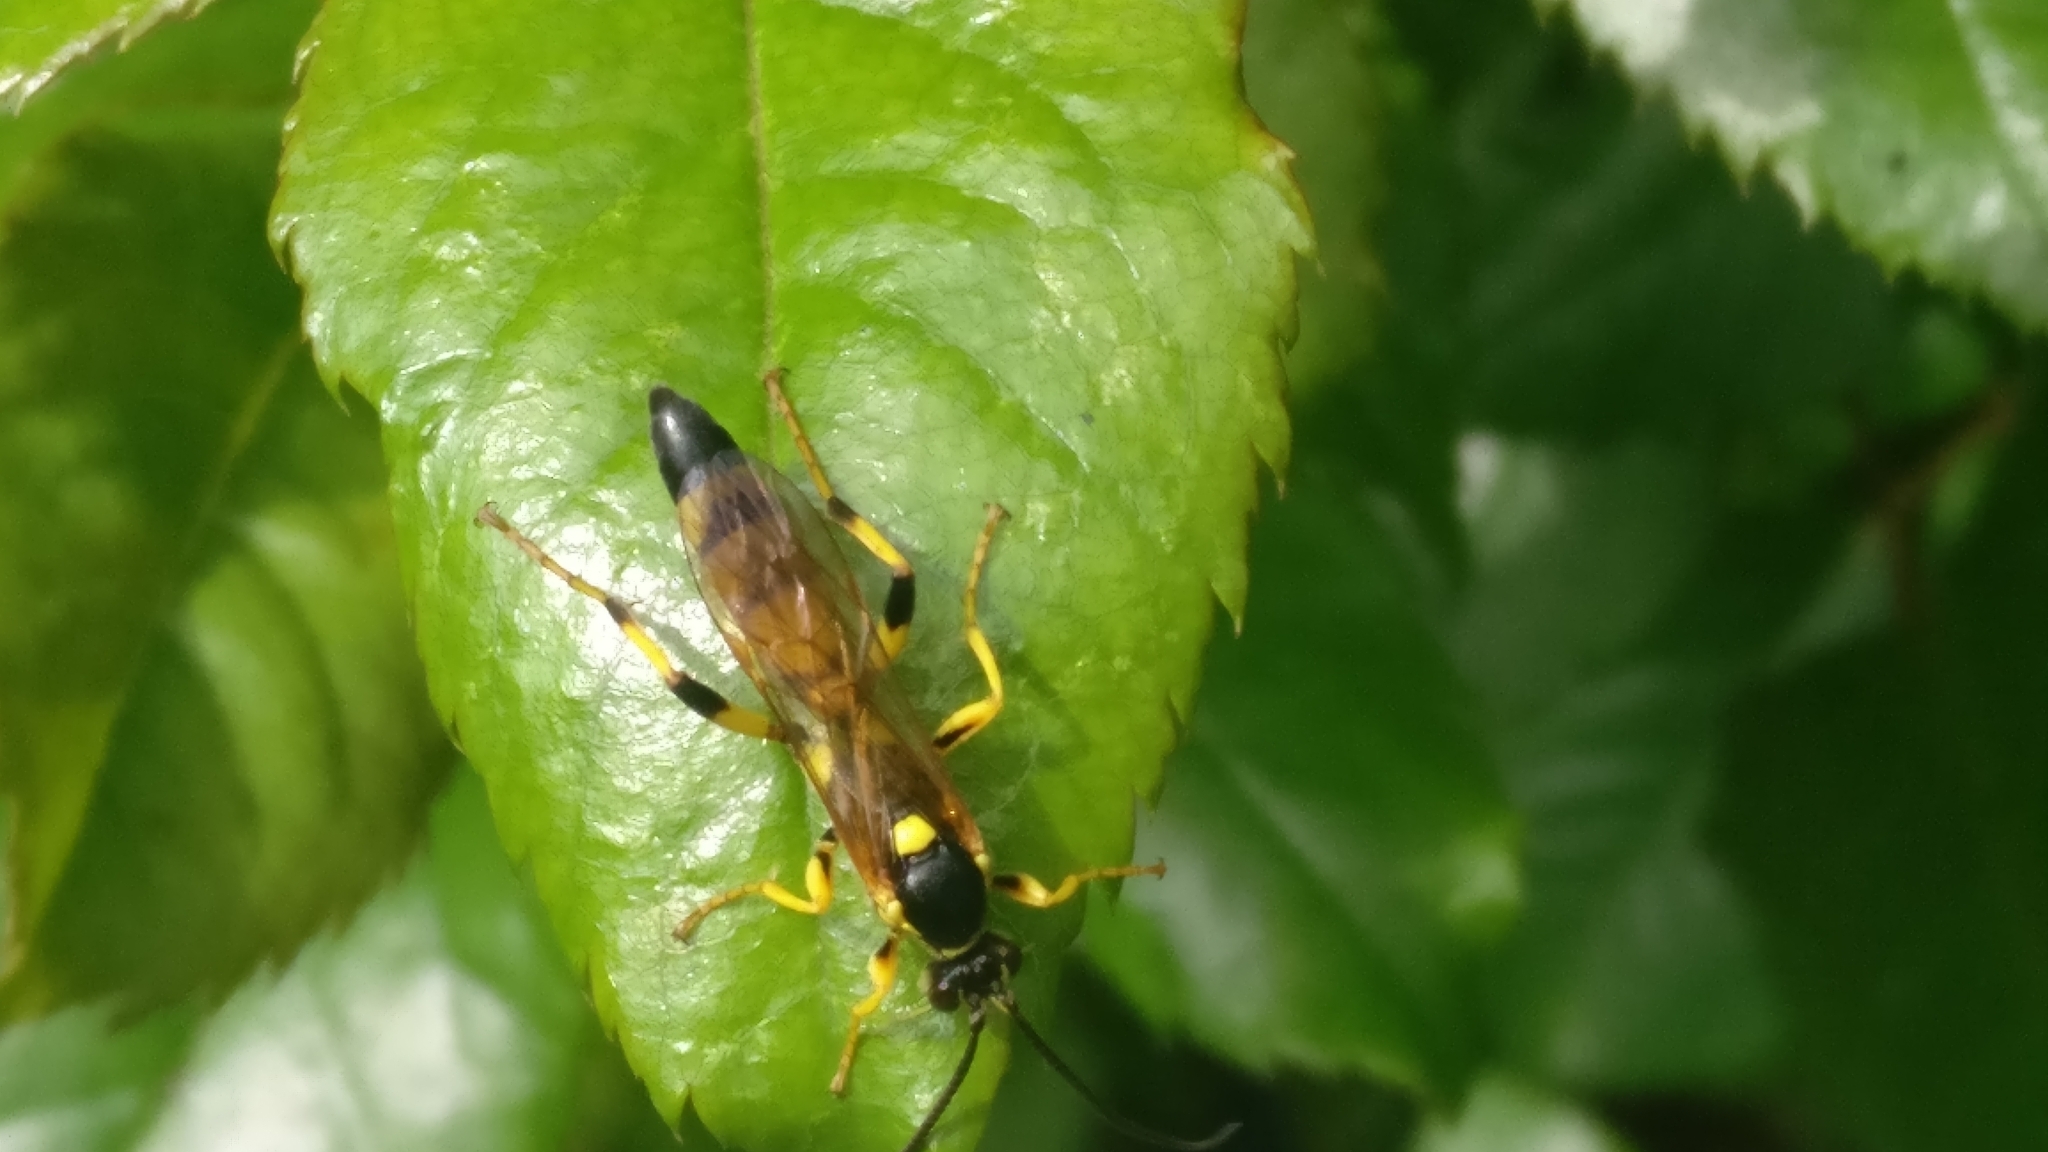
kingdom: Animalia
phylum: Arthropoda
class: Insecta
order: Hymenoptera
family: Ichneumonidae
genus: Ichneumon
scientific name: Ichneumon xanthorius
